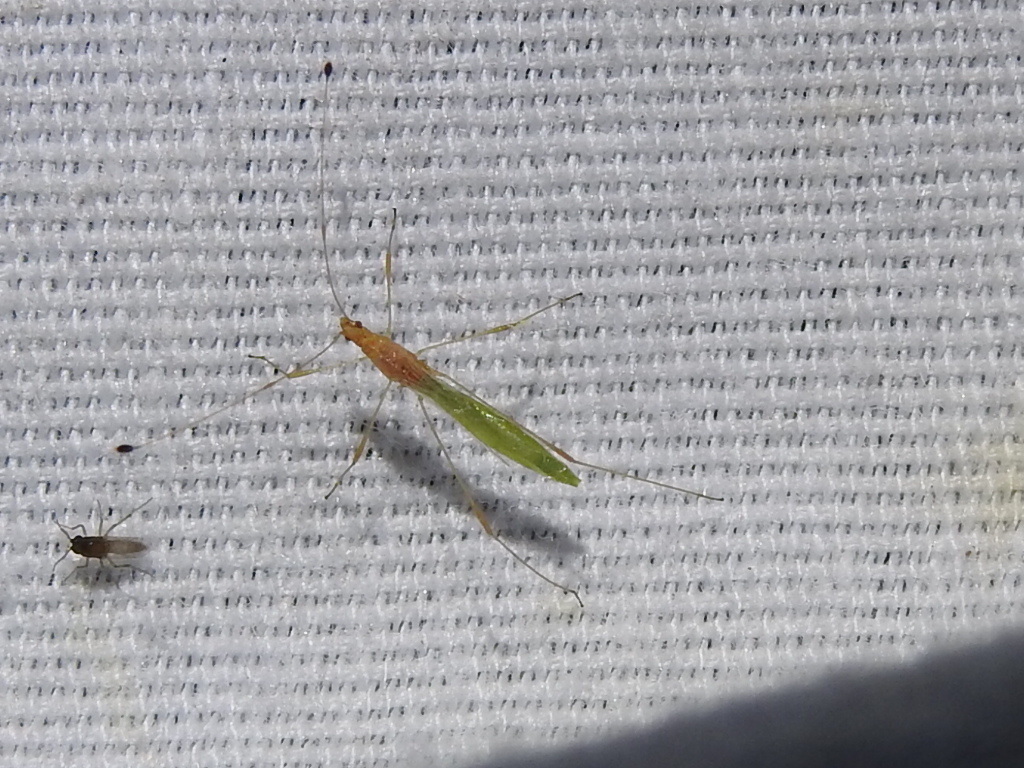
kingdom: Animalia
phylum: Arthropoda
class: Insecta
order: Hemiptera
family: Berytidae
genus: Metacanthus
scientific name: Metacanthus multispinus
